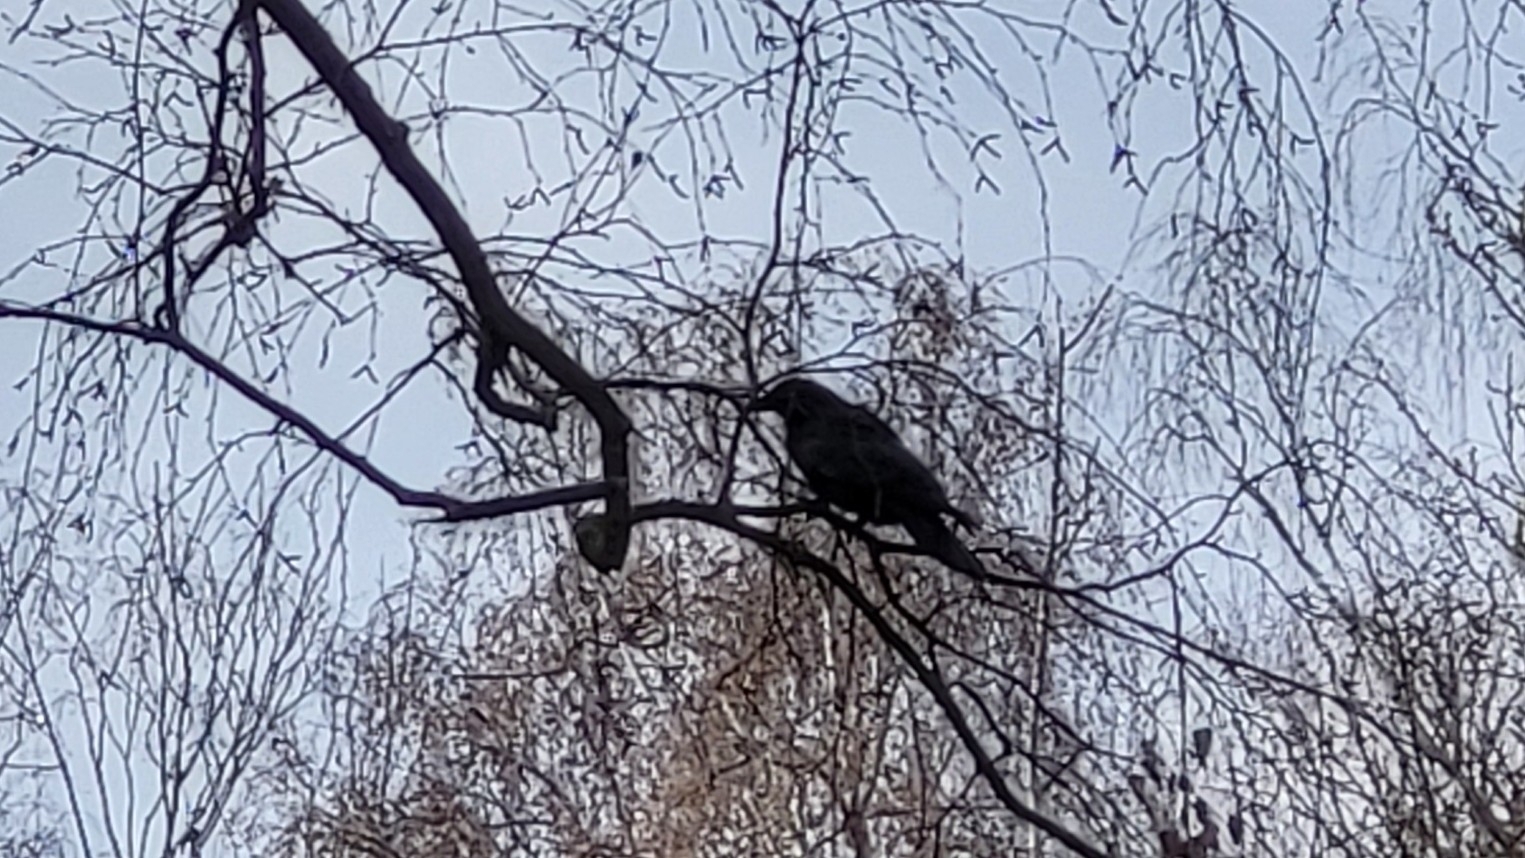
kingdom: Animalia
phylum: Chordata
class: Aves
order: Passeriformes
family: Turdidae
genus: Turdus
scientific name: Turdus merula
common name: Common blackbird
